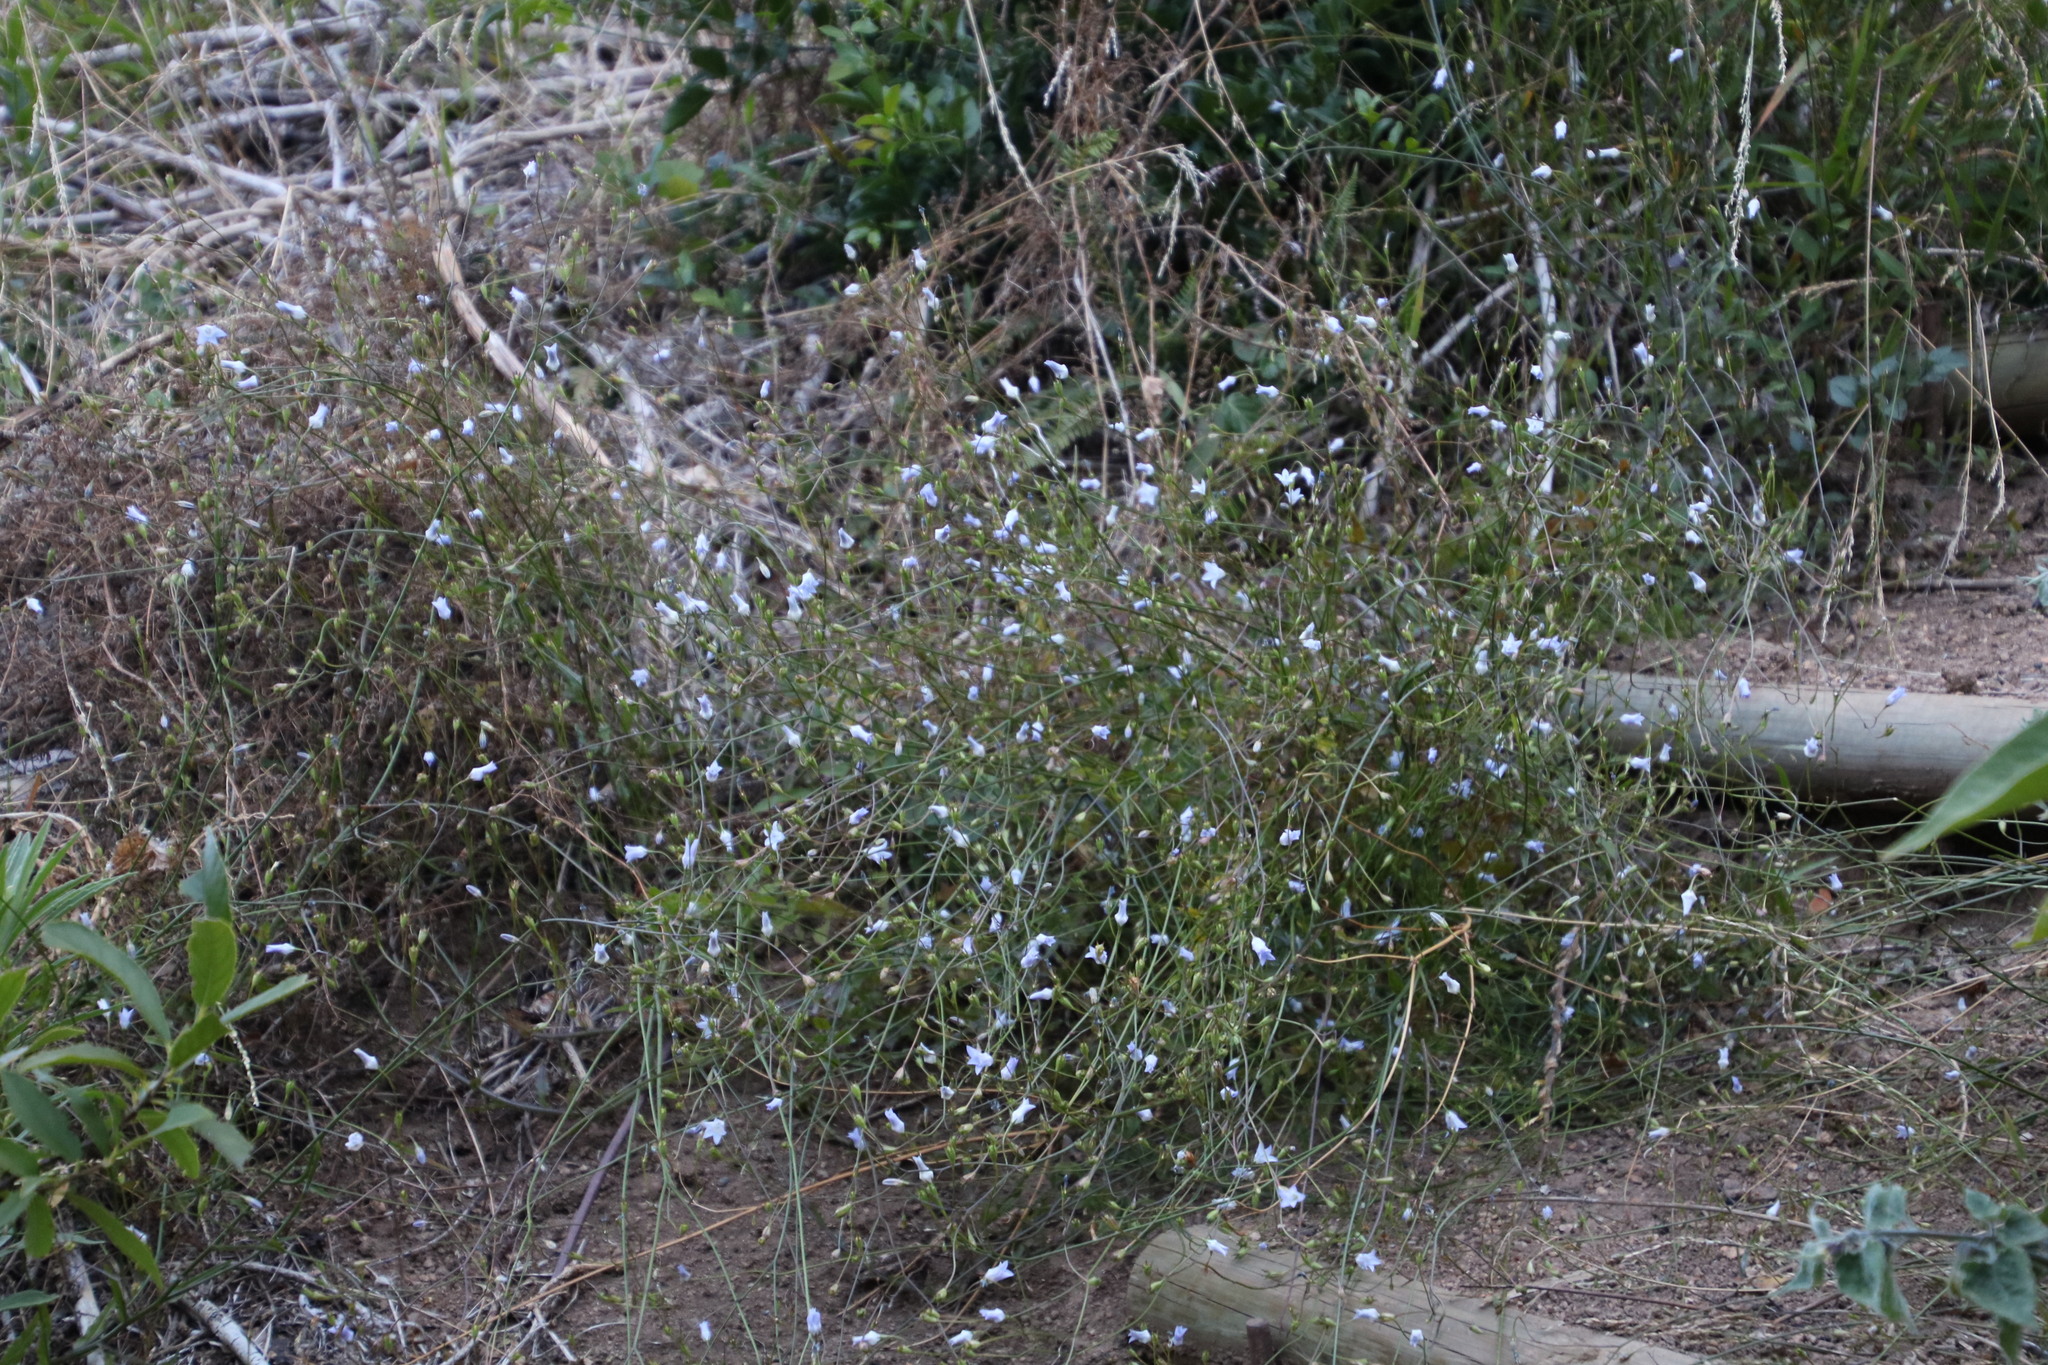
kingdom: Plantae
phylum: Tracheophyta
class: Magnoliopsida
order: Asterales
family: Campanulaceae
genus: Wahlenbergia
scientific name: Wahlenbergia obovata
